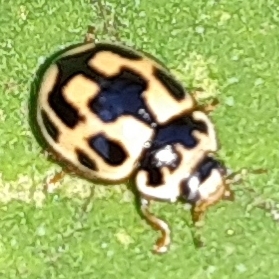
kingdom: Animalia
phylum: Arthropoda
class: Insecta
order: Coleoptera
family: Coccinellidae
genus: Propylaea
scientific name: Propylaea quatuordecimpunctata
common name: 14-spotted ladybird beetle
